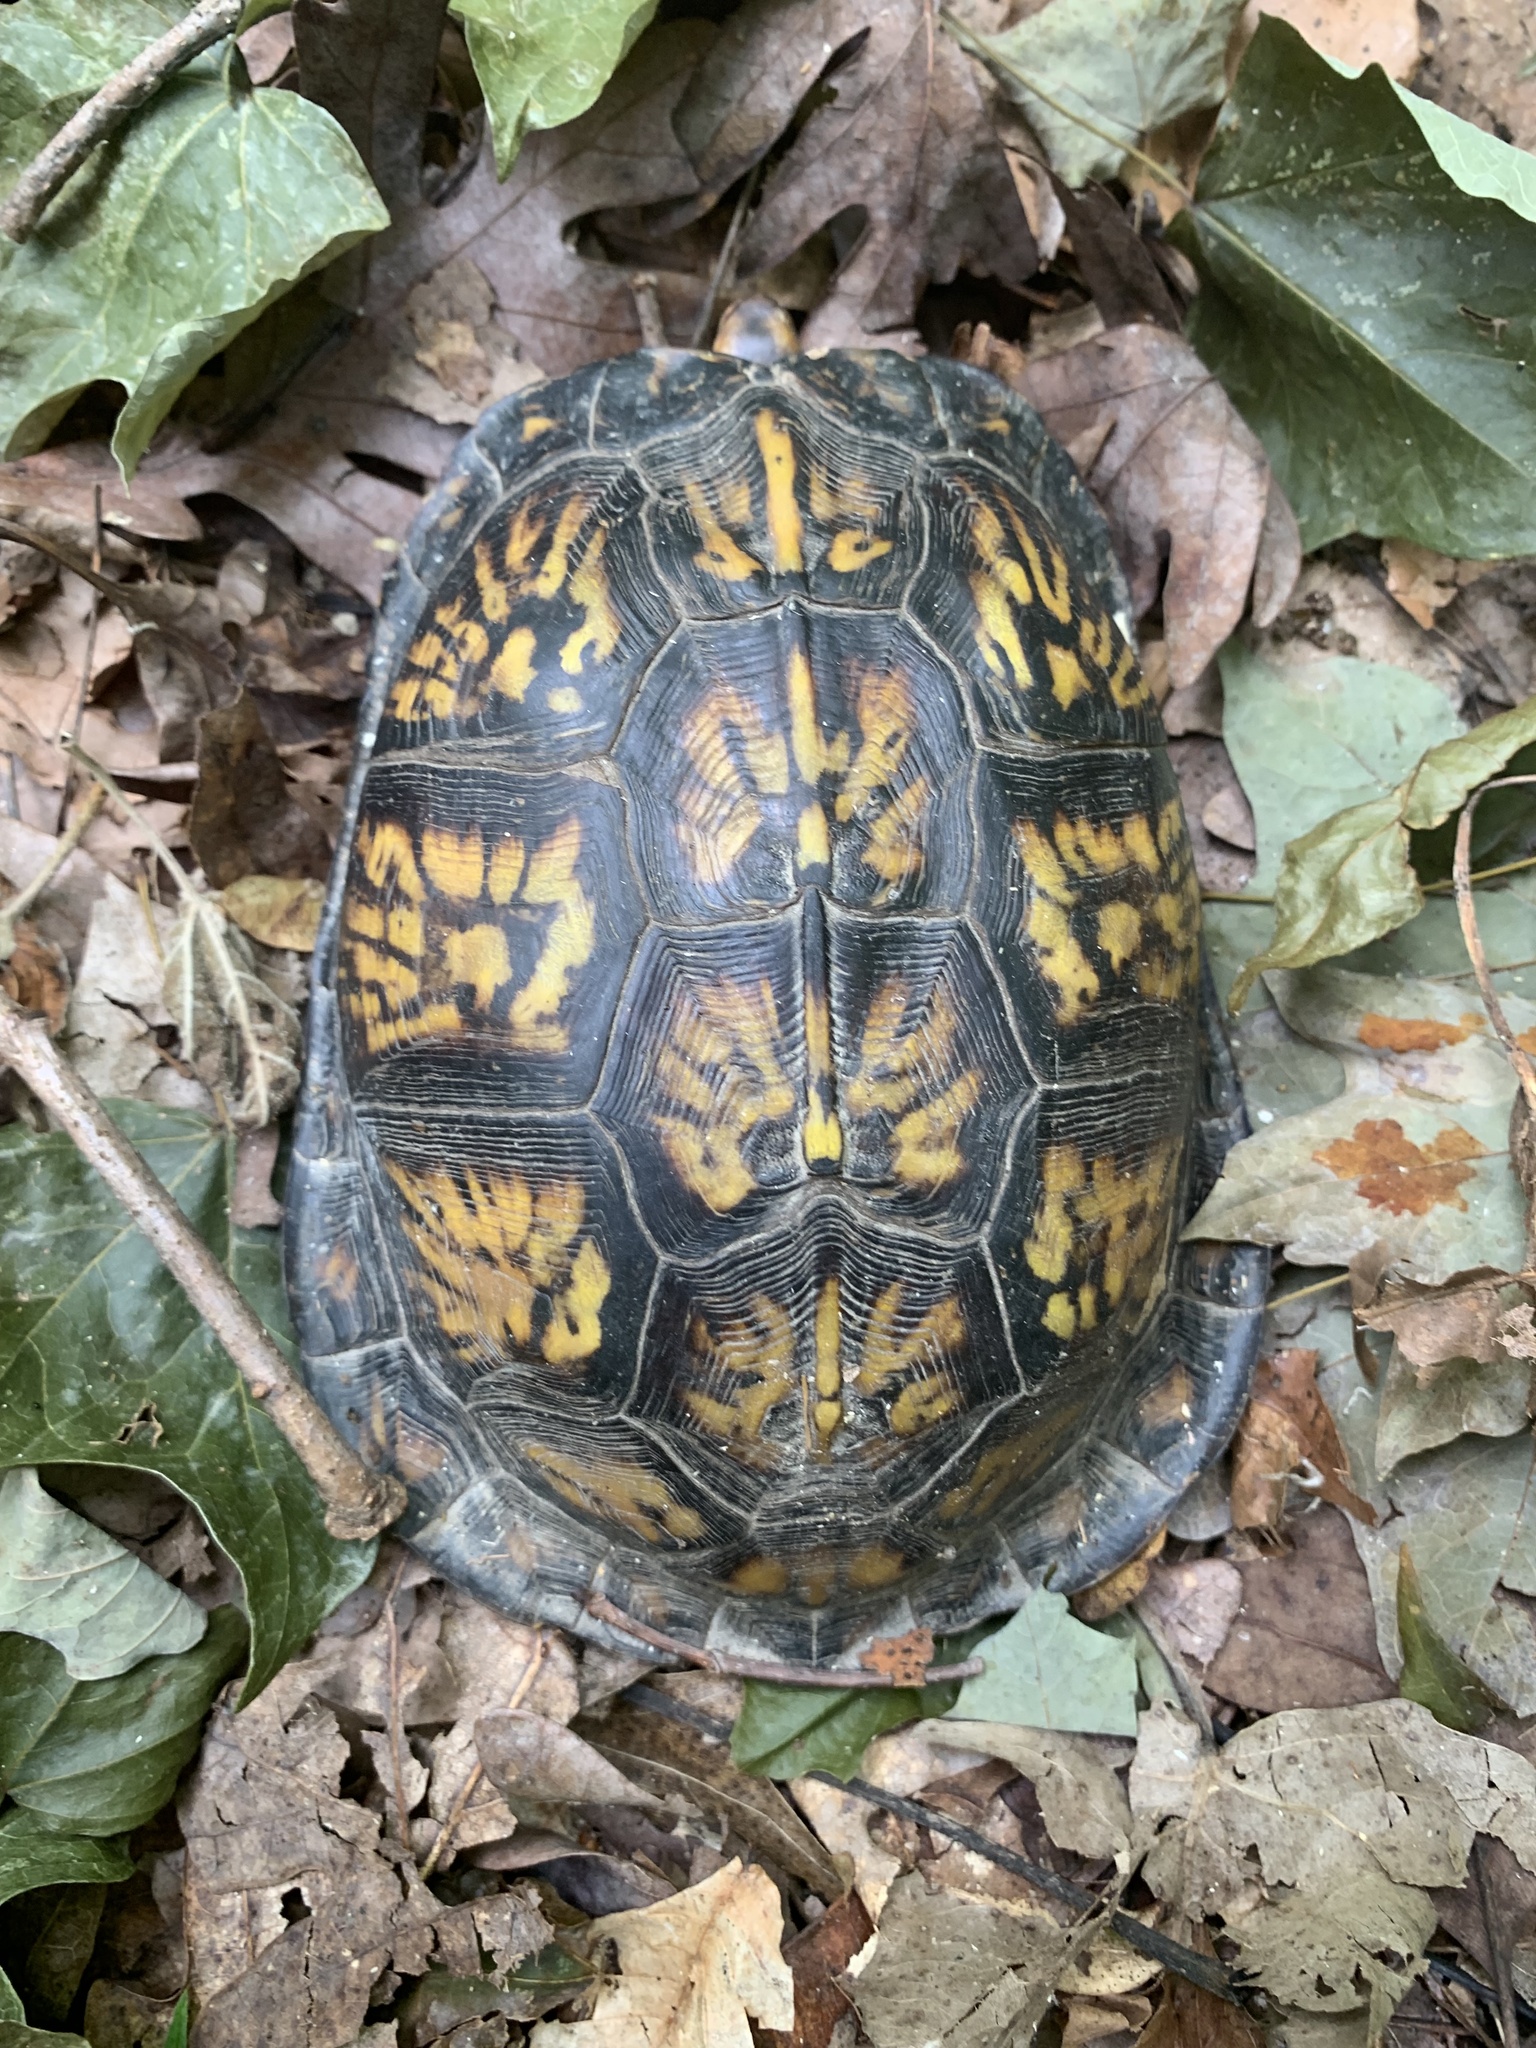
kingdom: Animalia
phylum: Chordata
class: Testudines
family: Emydidae
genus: Terrapene
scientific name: Terrapene carolina
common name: Common box turtle
